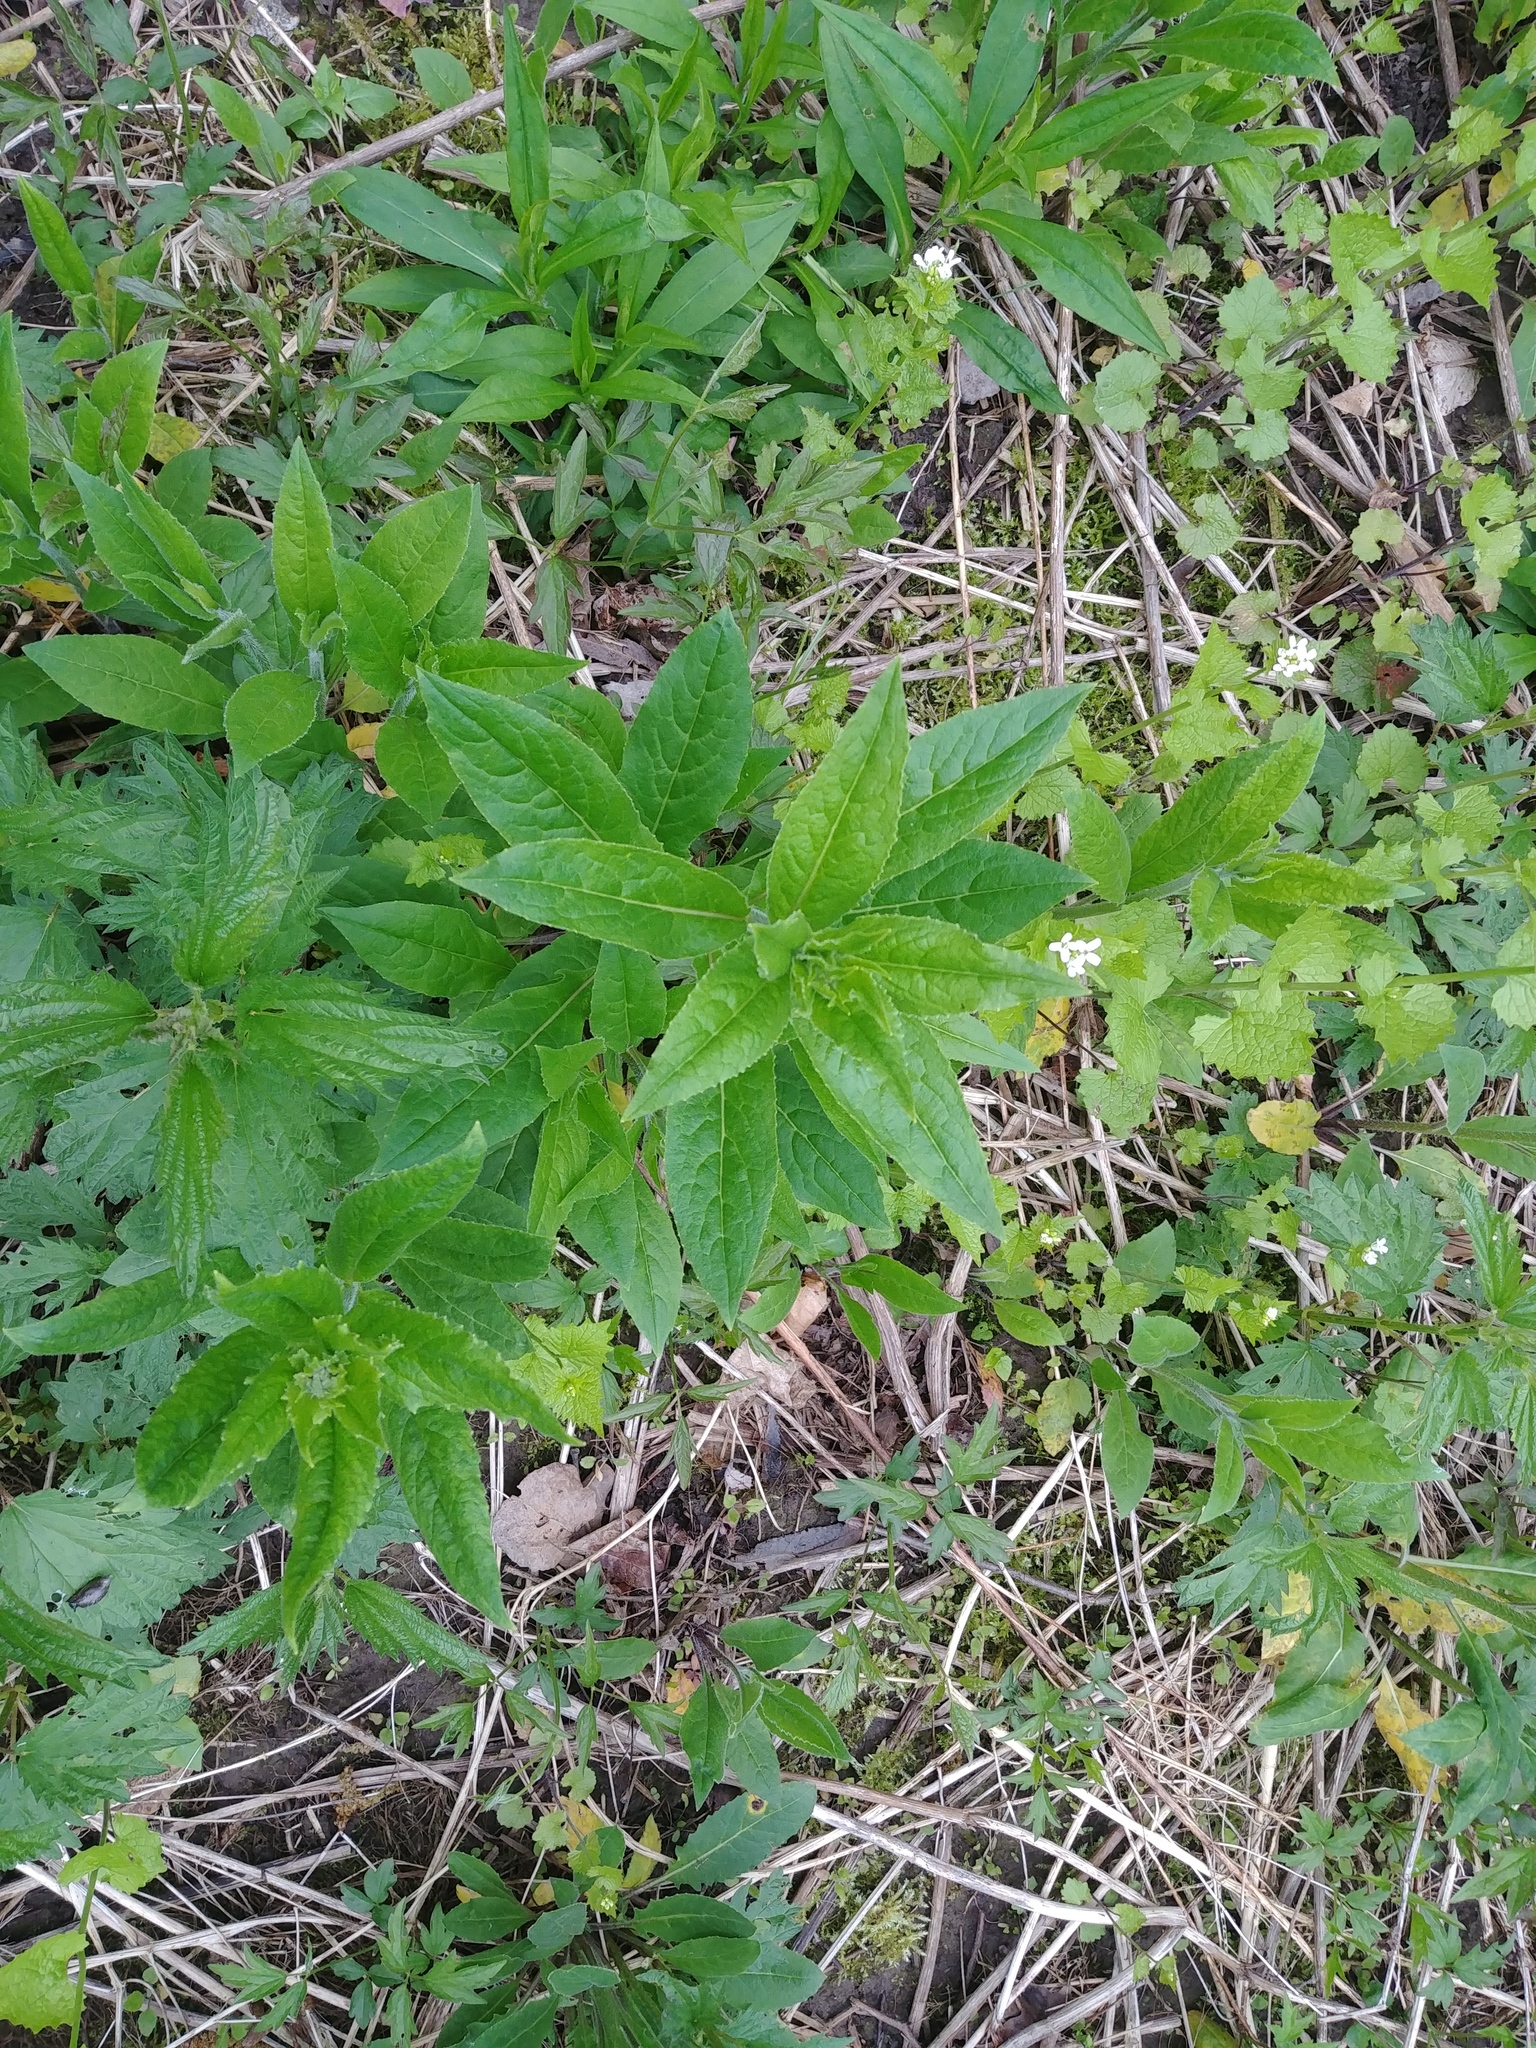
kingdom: Plantae
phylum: Tracheophyta
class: Magnoliopsida
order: Brassicales
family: Brassicaceae
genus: Hesperis
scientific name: Hesperis matronalis
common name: Dame's-violet
